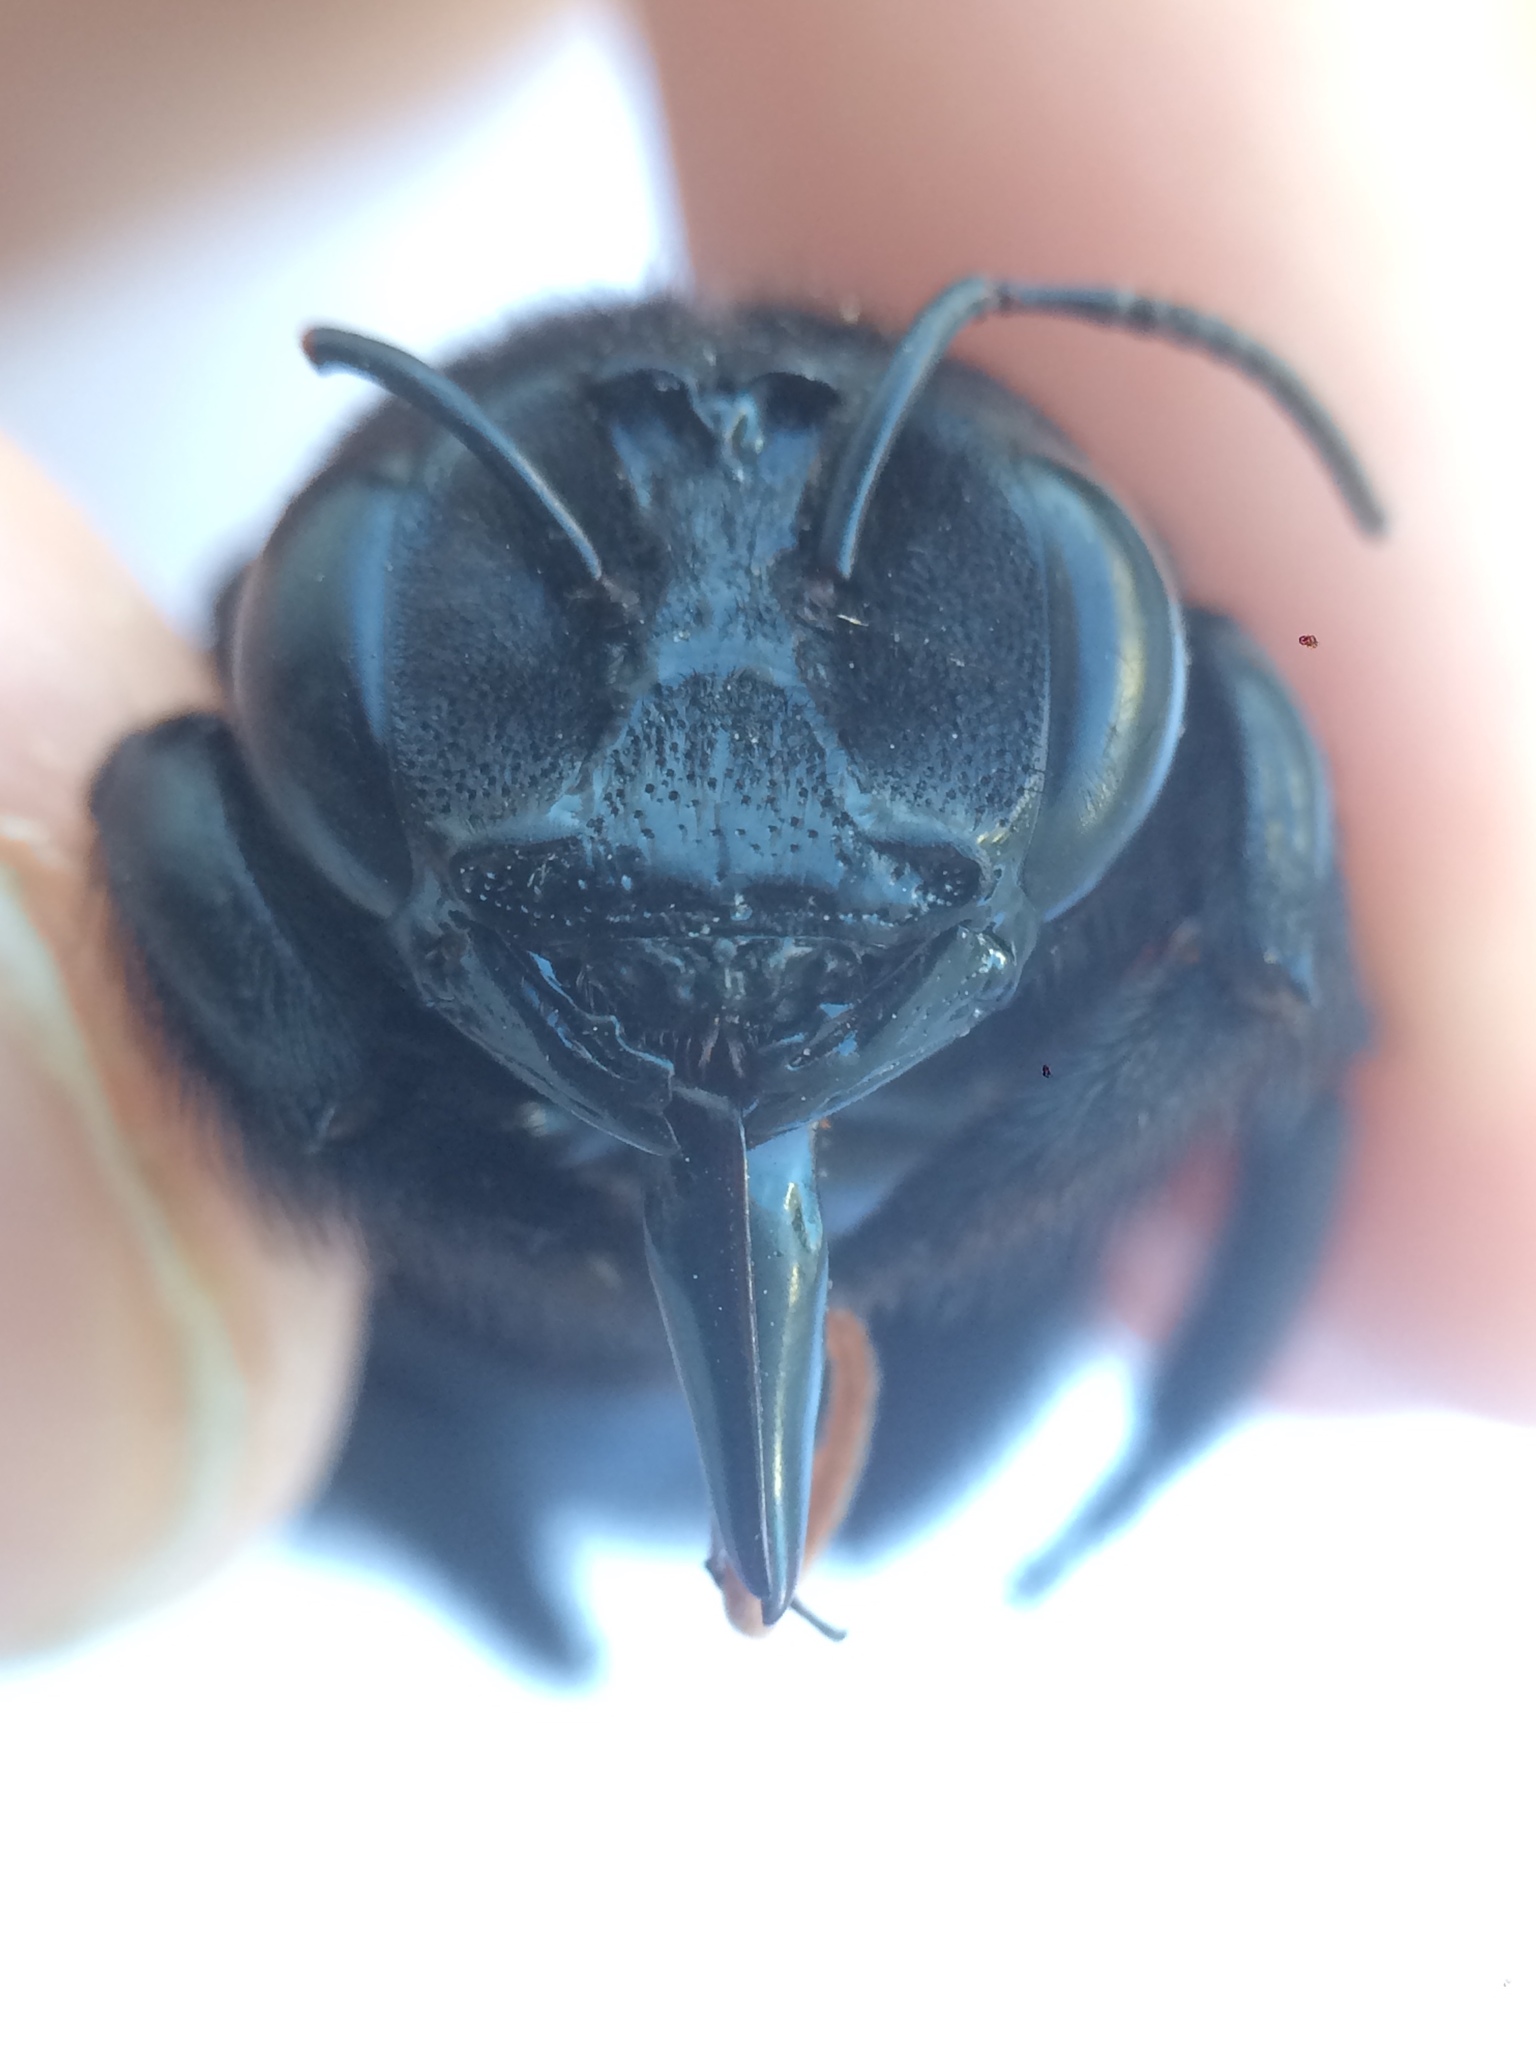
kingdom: Animalia
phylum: Arthropoda
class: Insecta
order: Hymenoptera
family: Apidae
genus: Xylocopa
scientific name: Xylocopa frontalis
